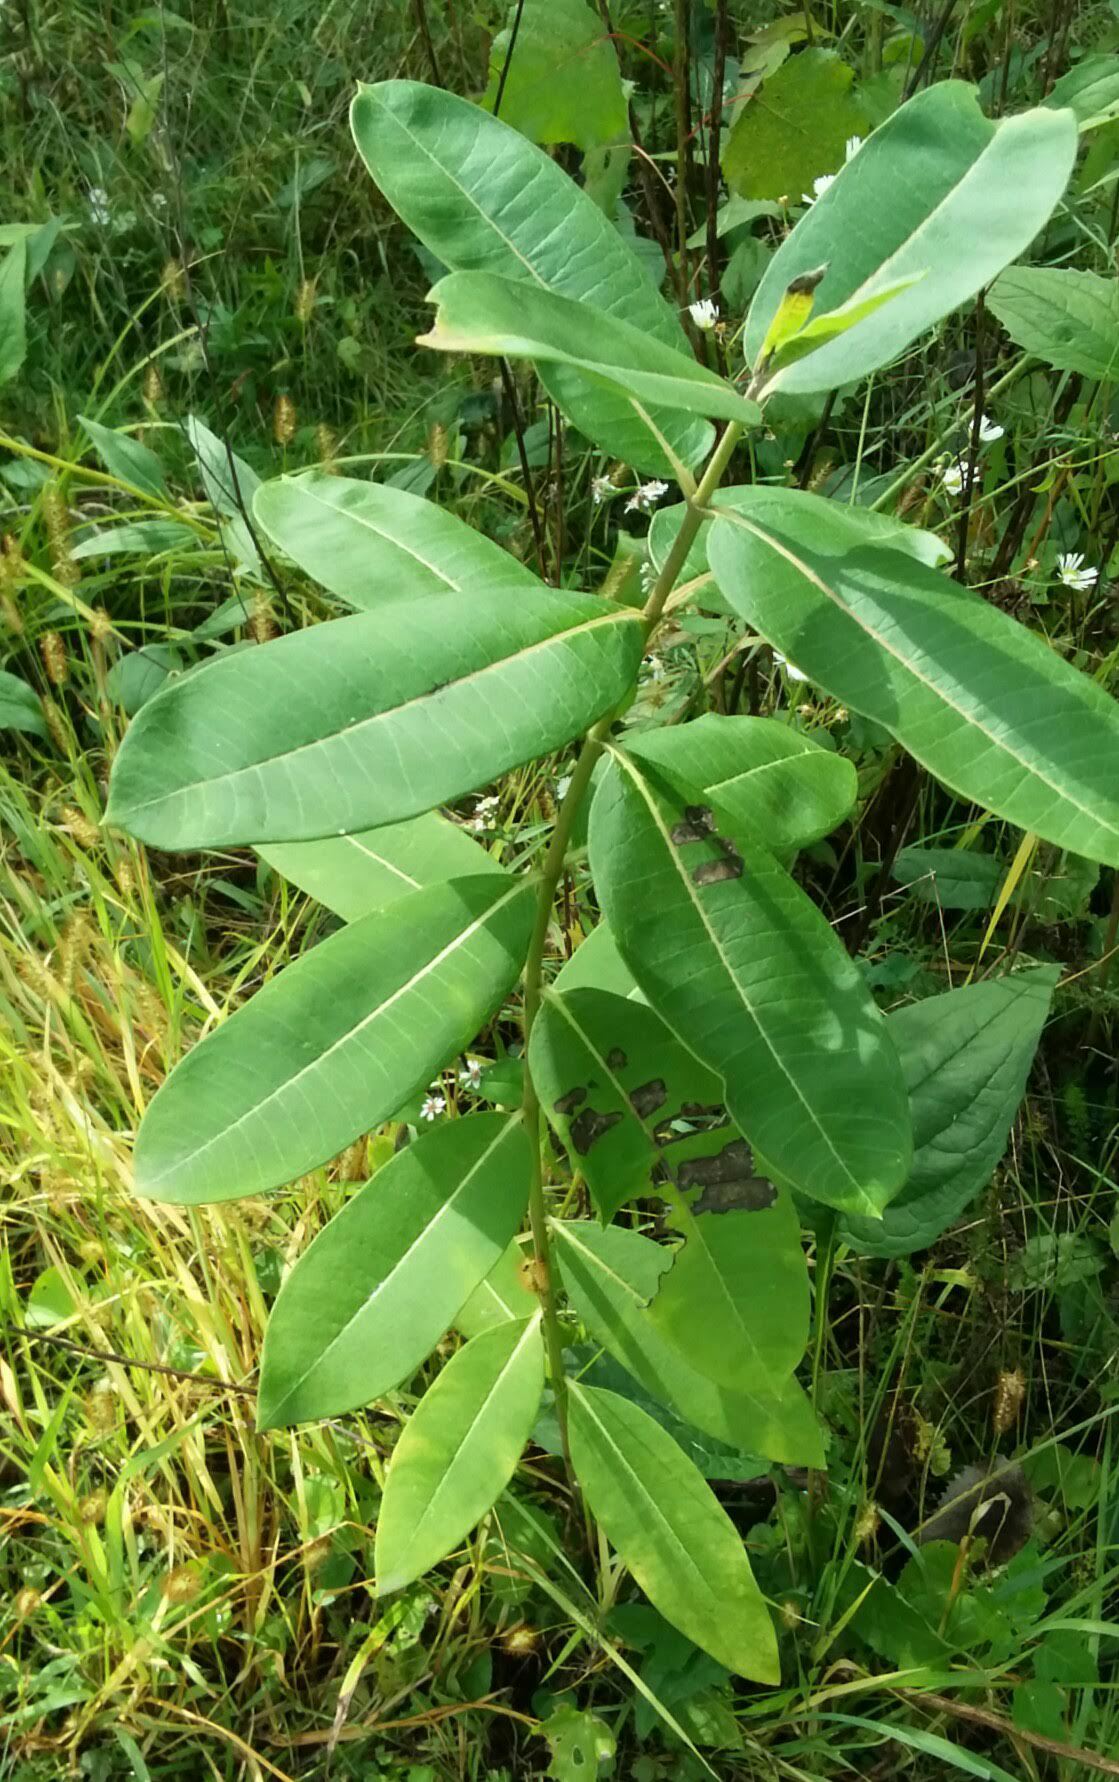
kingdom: Plantae
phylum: Tracheophyta
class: Magnoliopsida
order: Gentianales
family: Apocynaceae
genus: Asclepias
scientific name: Asclepias syriaca
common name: Common milkweed
